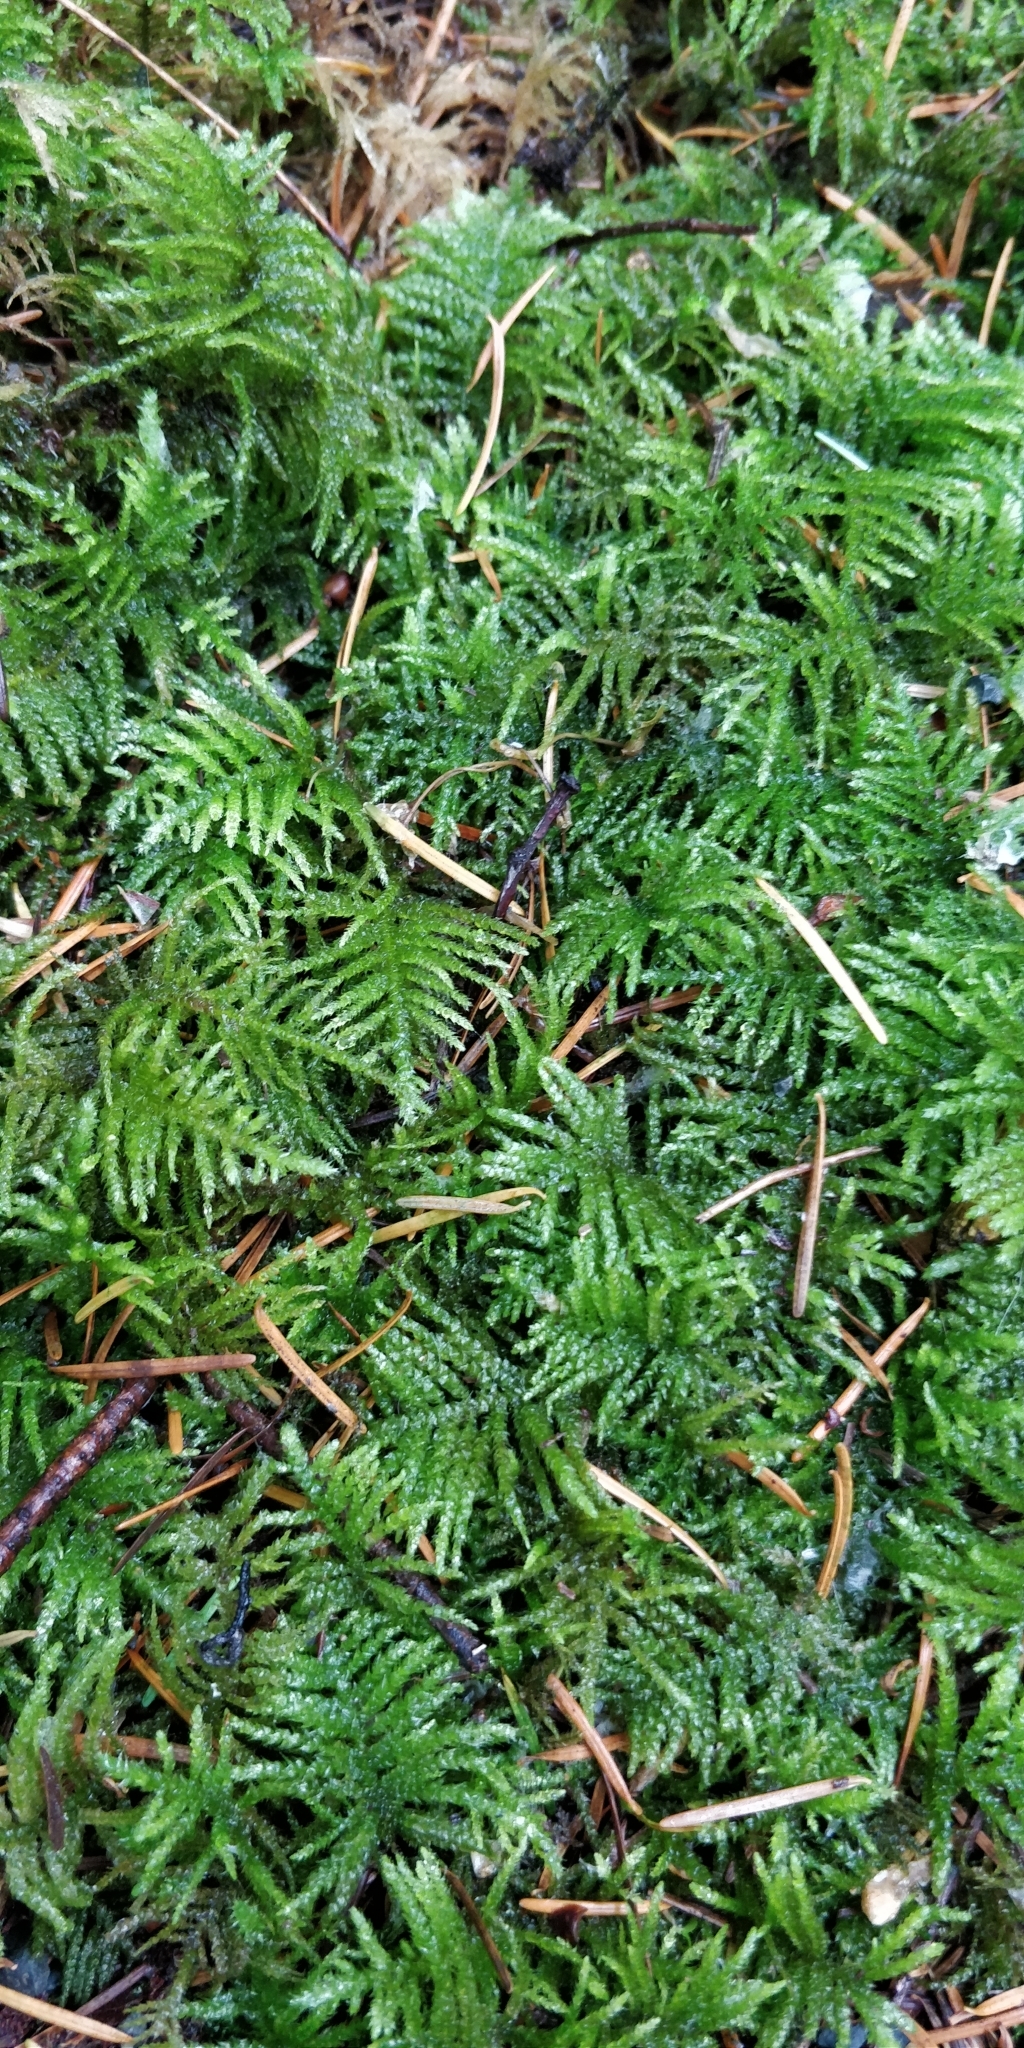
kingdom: Plantae
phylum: Bryophyta
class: Bryopsida
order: Hypnales
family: Brachytheciaceae
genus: Kindbergia
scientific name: Kindbergia oregana
